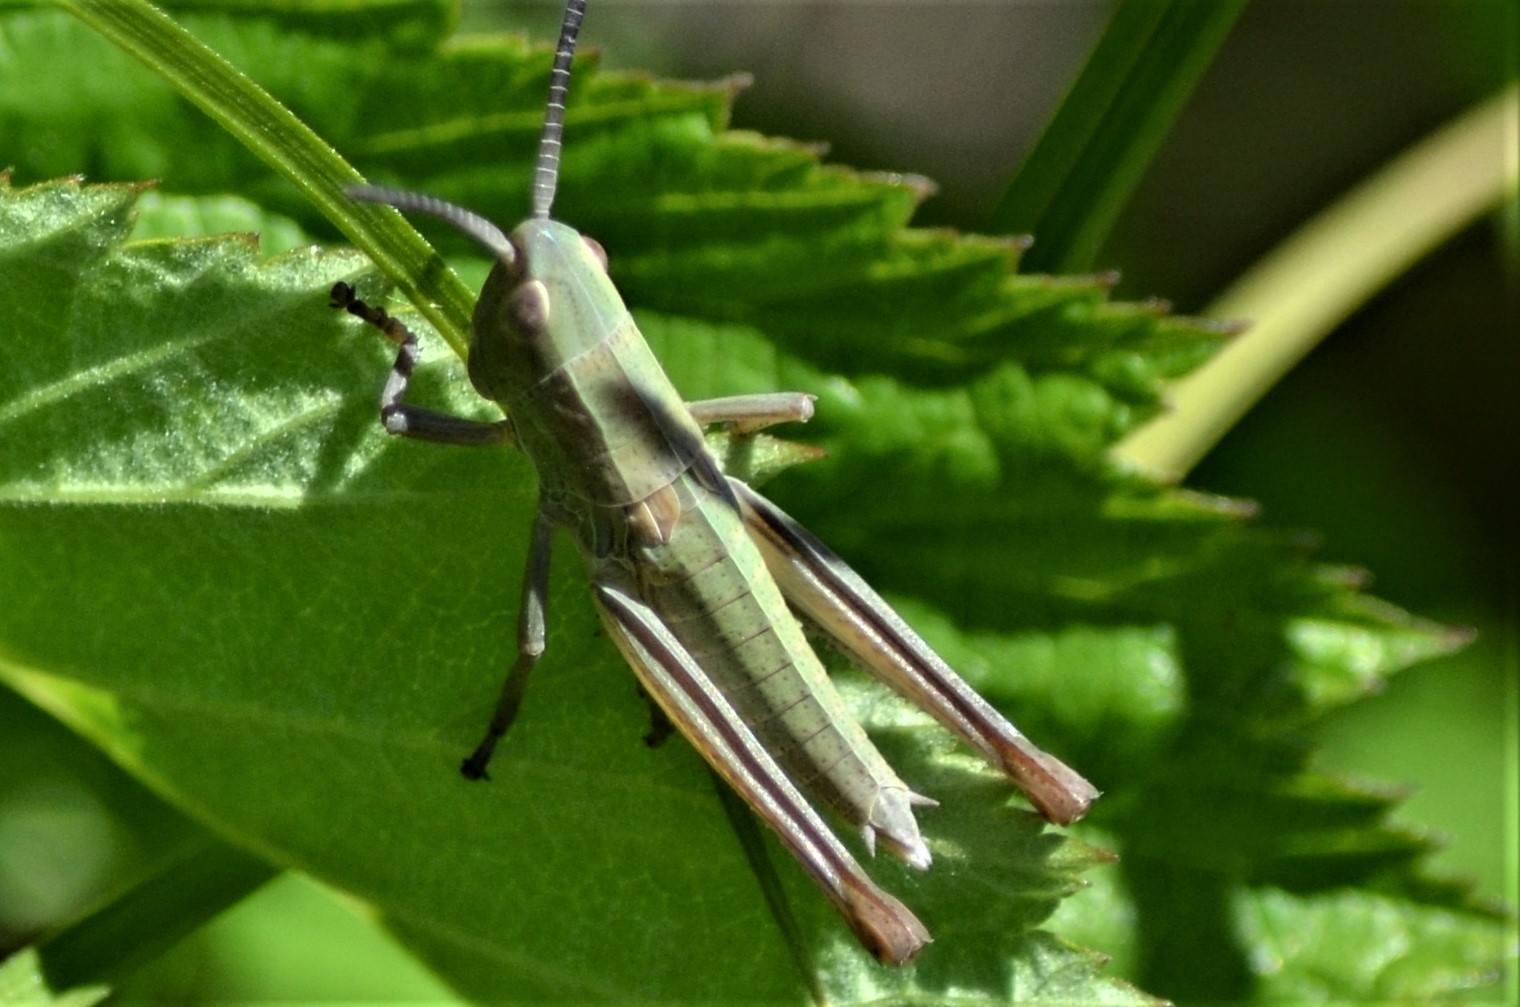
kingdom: Animalia
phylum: Arthropoda
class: Insecta
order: Orthoptera
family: Acrididae
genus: Euthystira
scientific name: Euthystira brachyptera
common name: Small gold grasshopper
